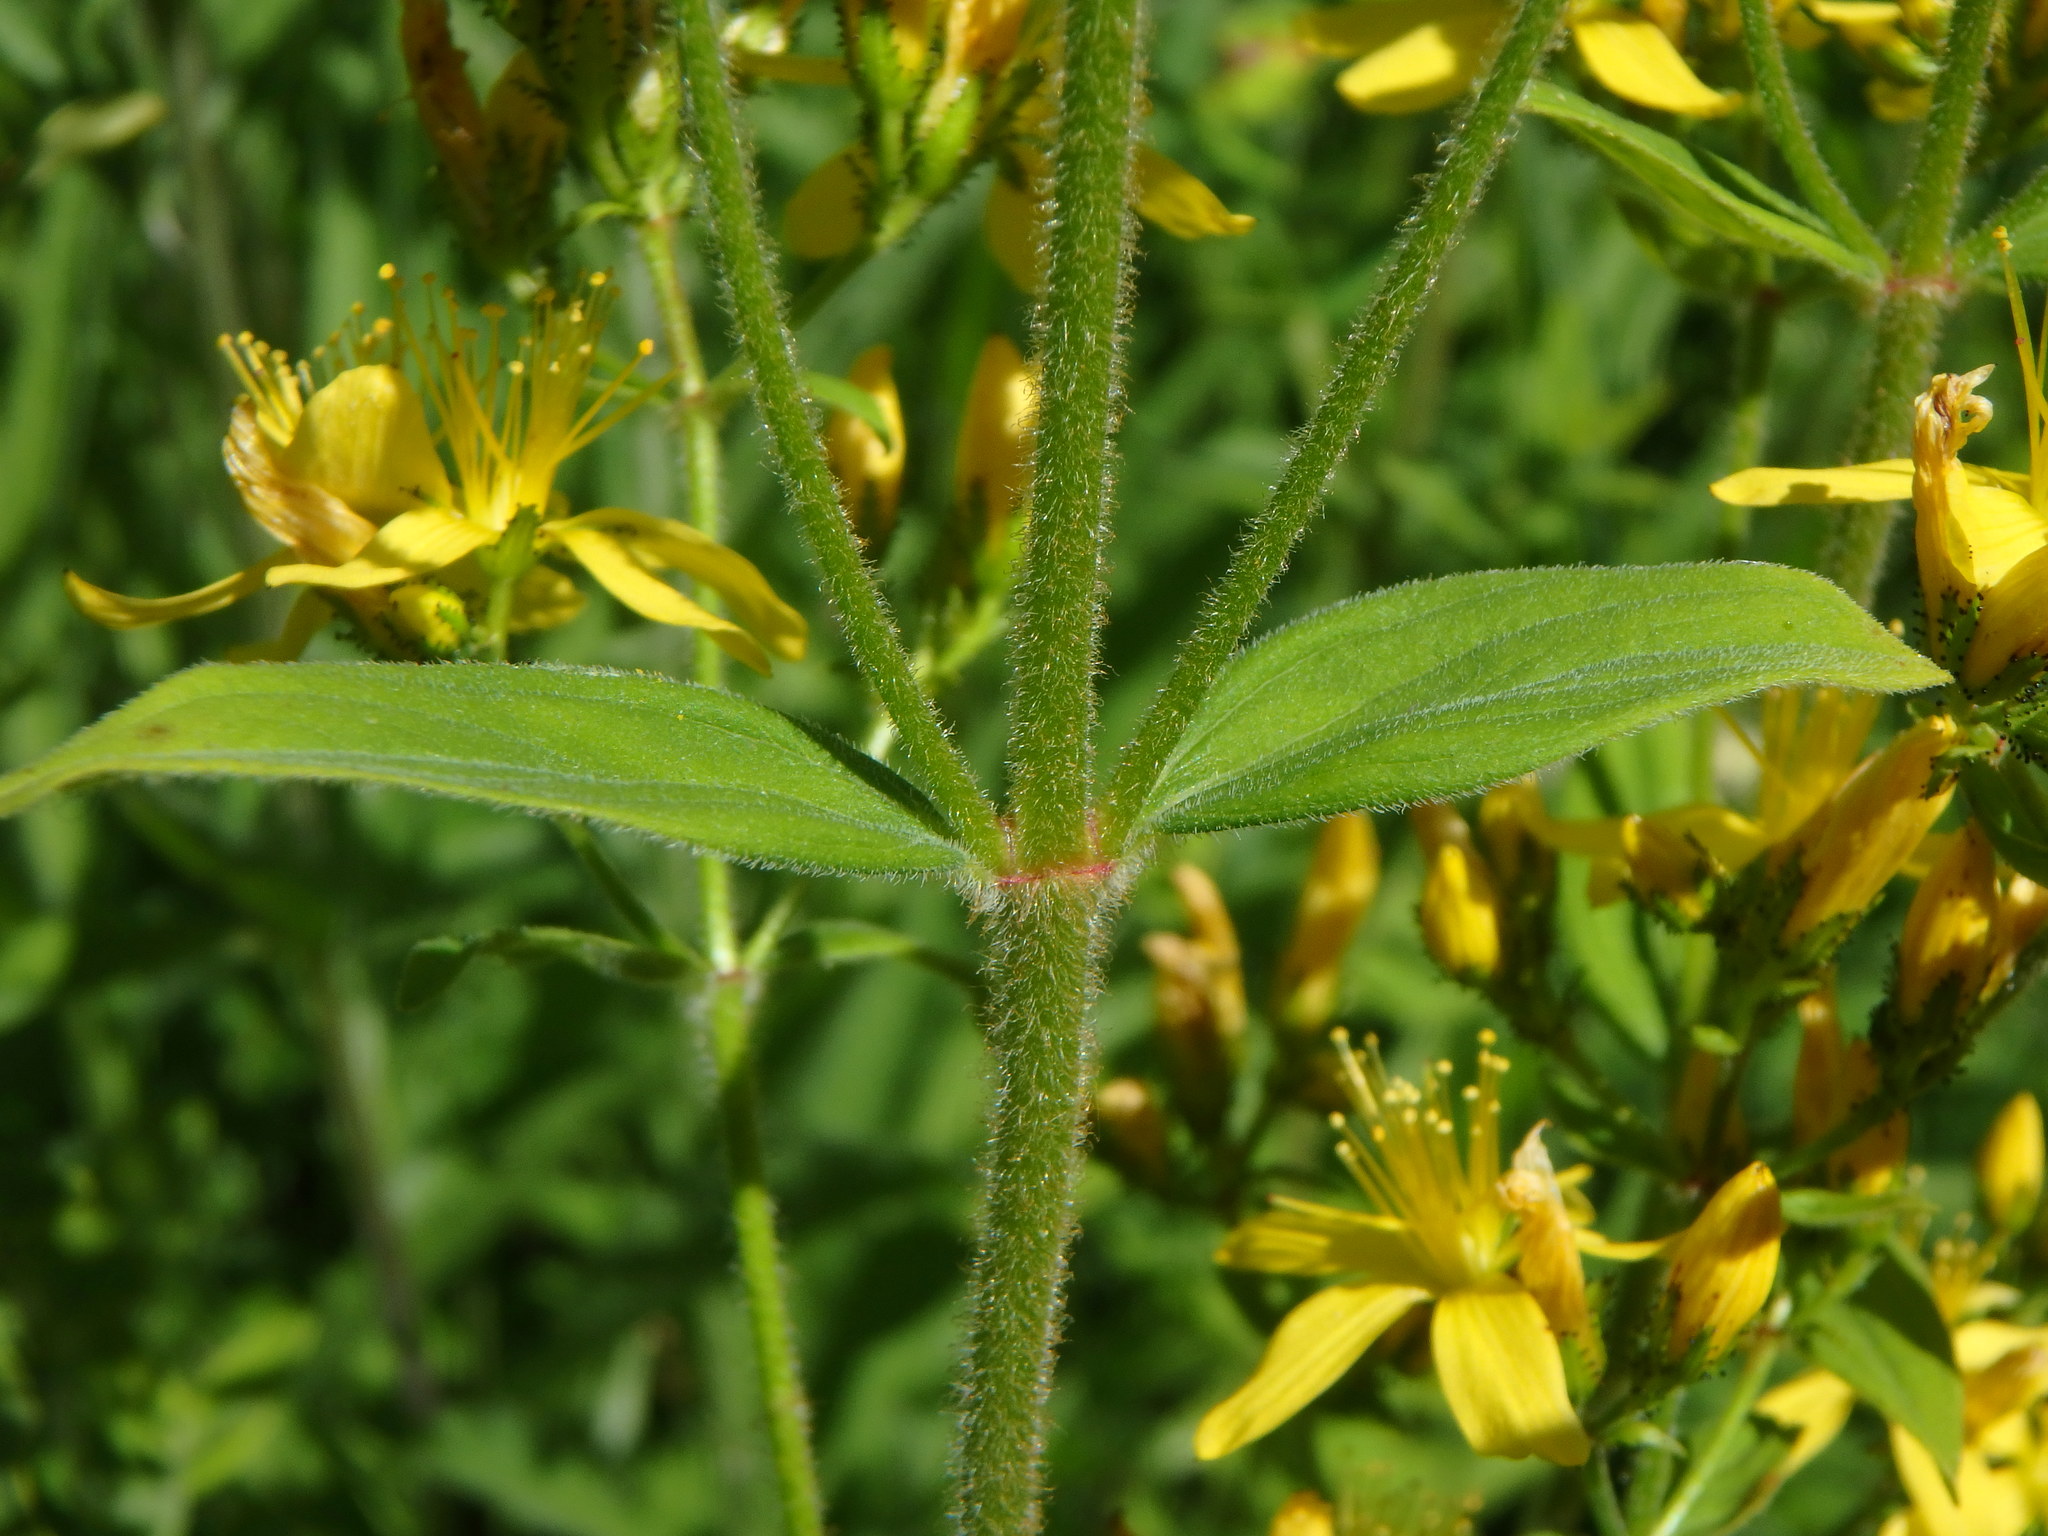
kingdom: Plantae
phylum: Tracheophyta
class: Magnoliopsida
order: Malpighiales
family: Hypericaceae
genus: Hypericum
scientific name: Hypericum hirsutum
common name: Hairy st. john's-wort
